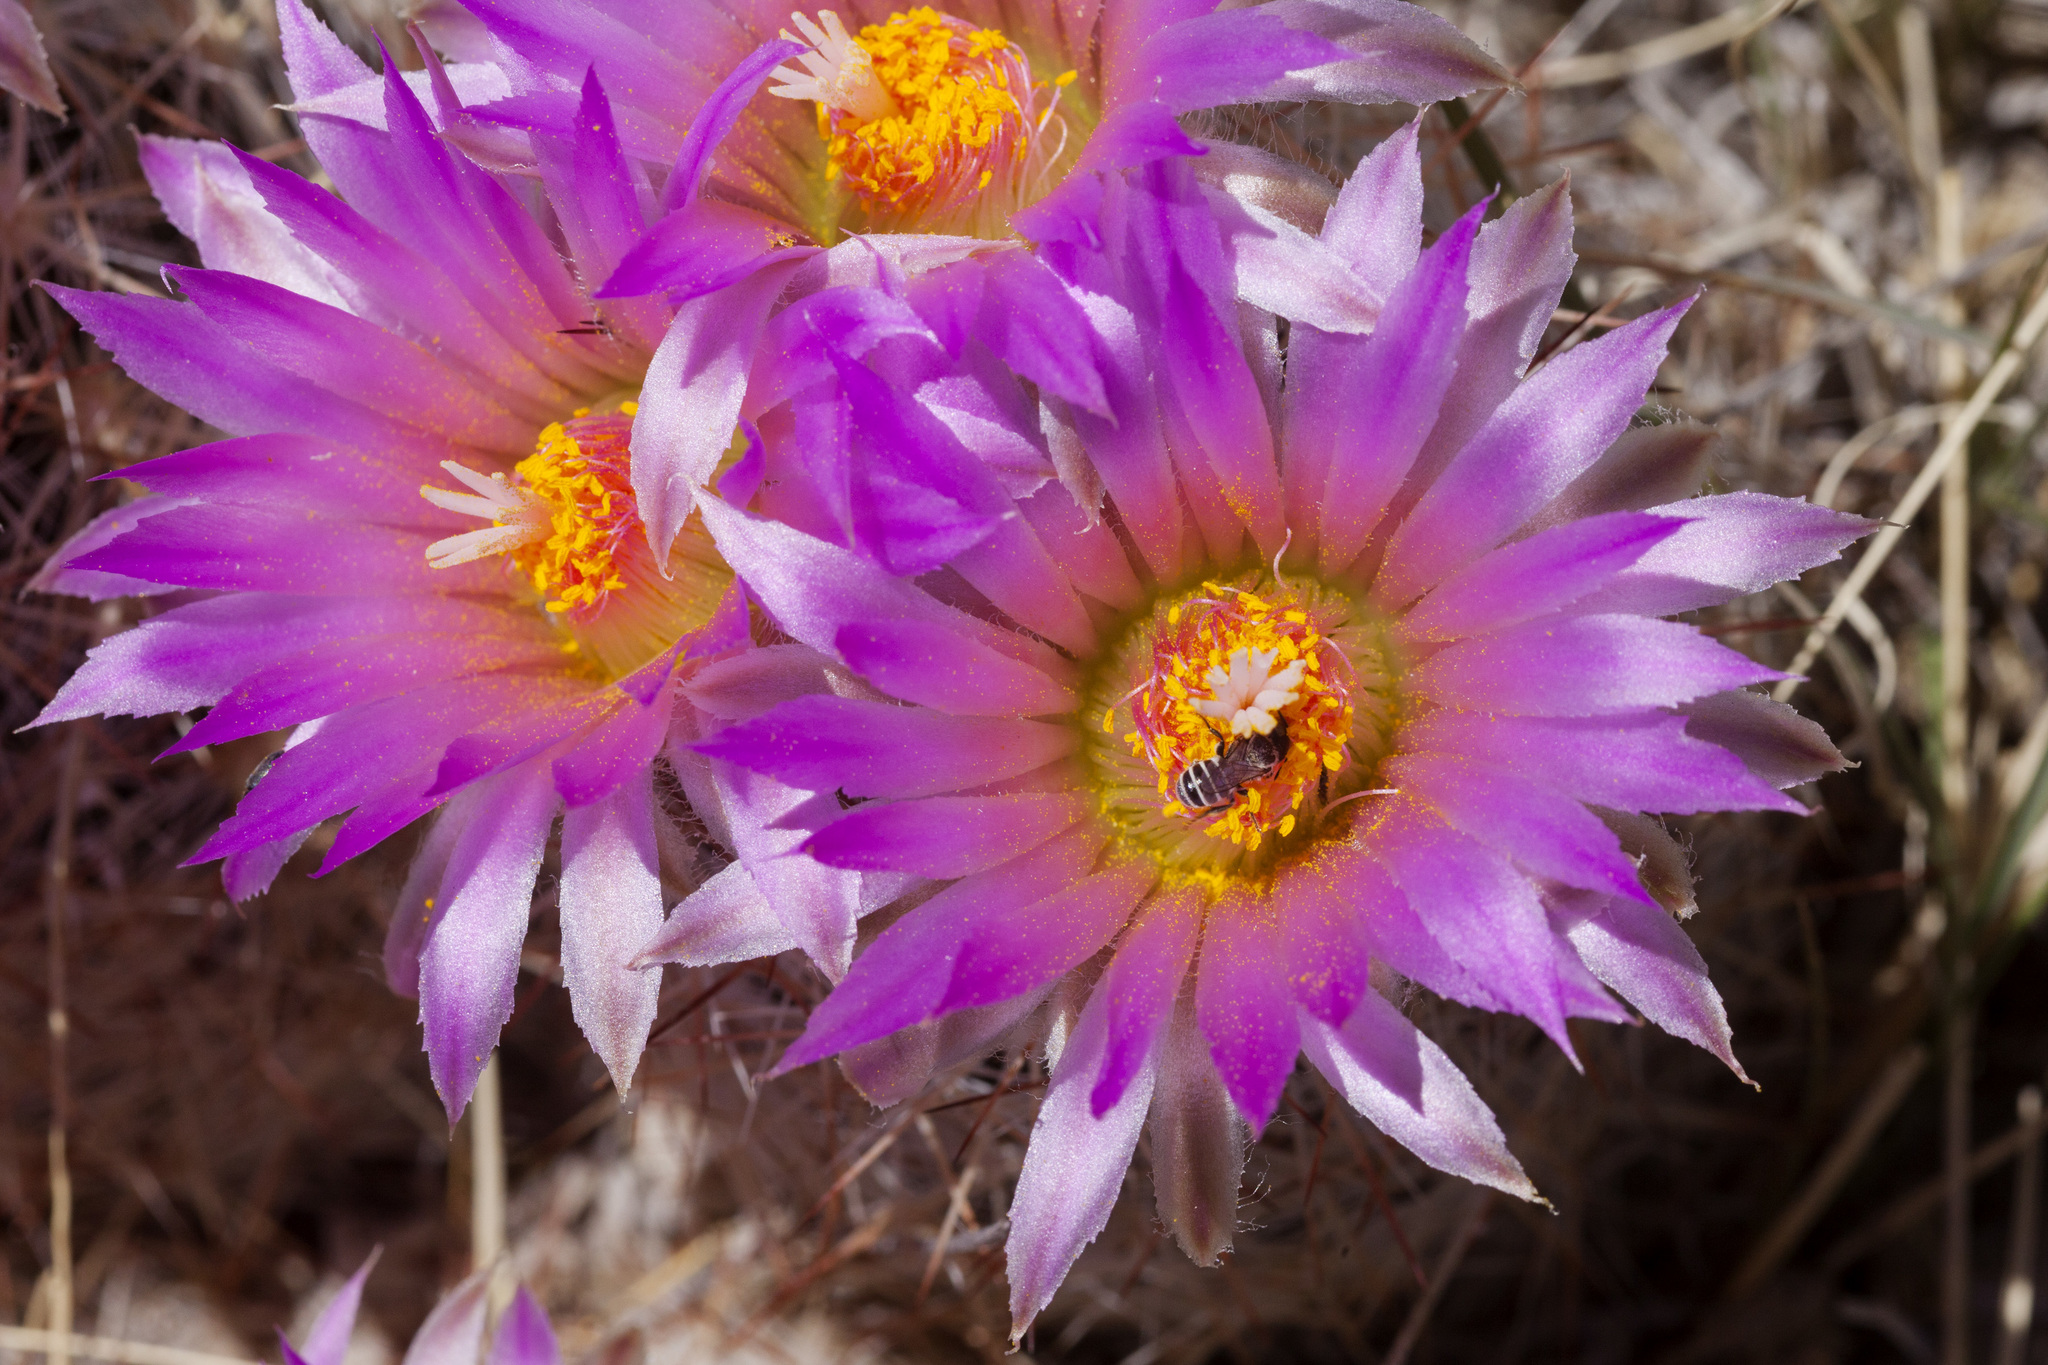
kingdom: Plantae
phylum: Tracheophyta
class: Magnoliopsida
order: Caryophyllales
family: Cactaceae
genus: Pelecyphora
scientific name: Pelecyphora vivipara
